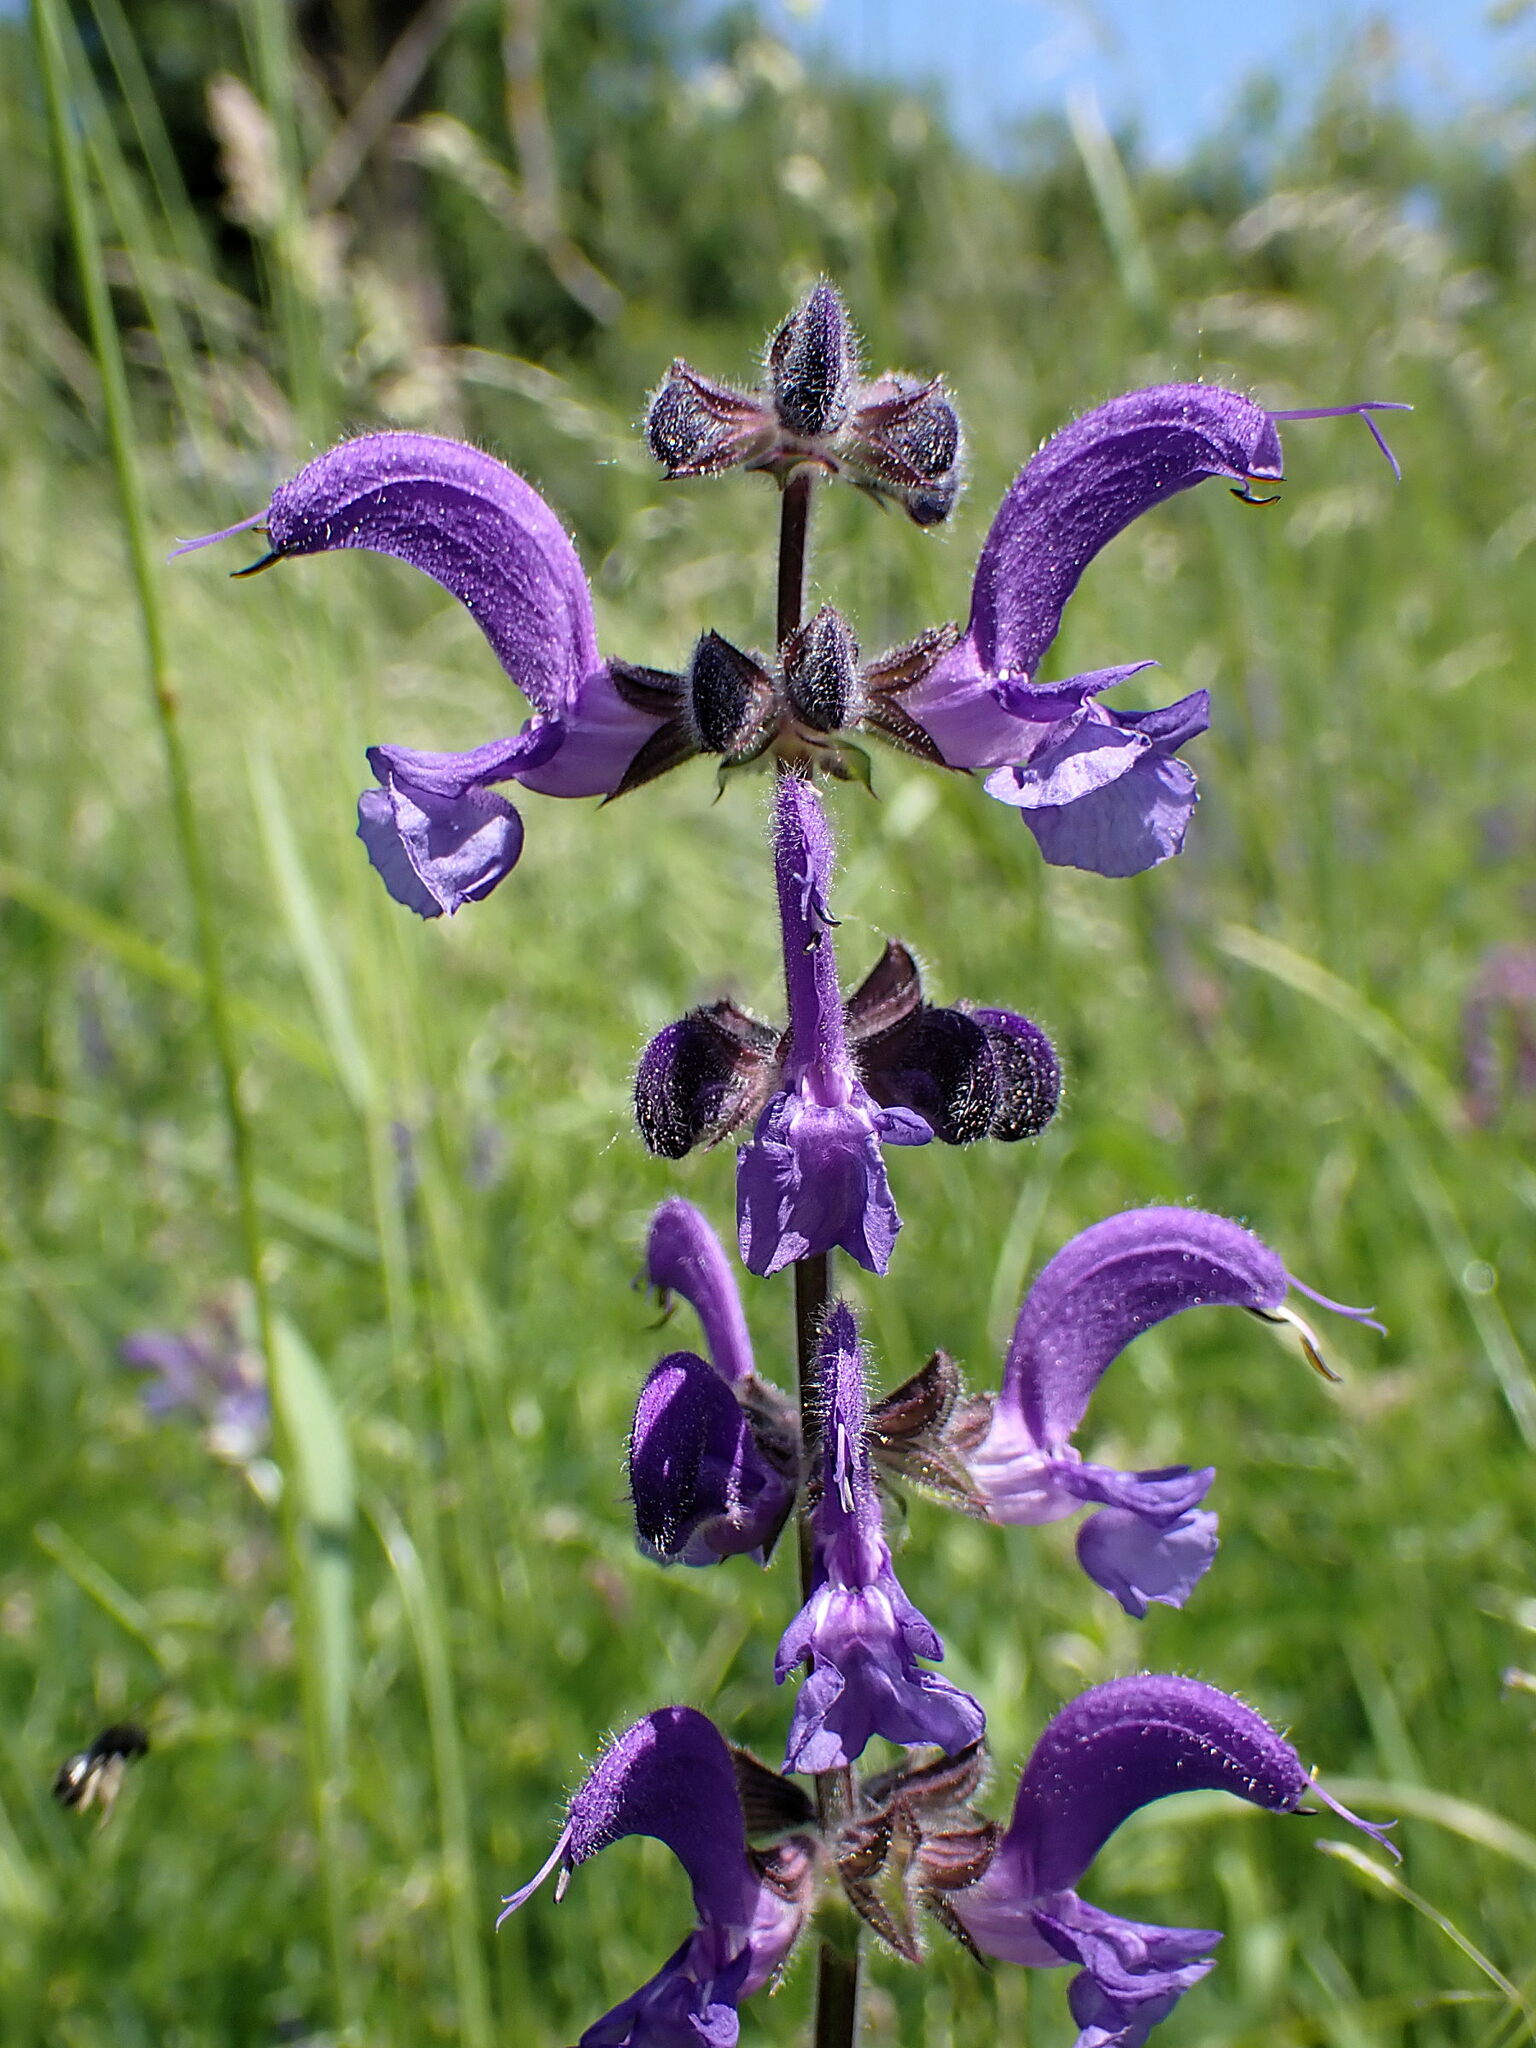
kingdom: Plantae
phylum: Tracheophyta
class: Magnoliopsida
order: Lamiales
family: Lamiaceae
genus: Salvia
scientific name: Salvia pratensis
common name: Meadow sage
